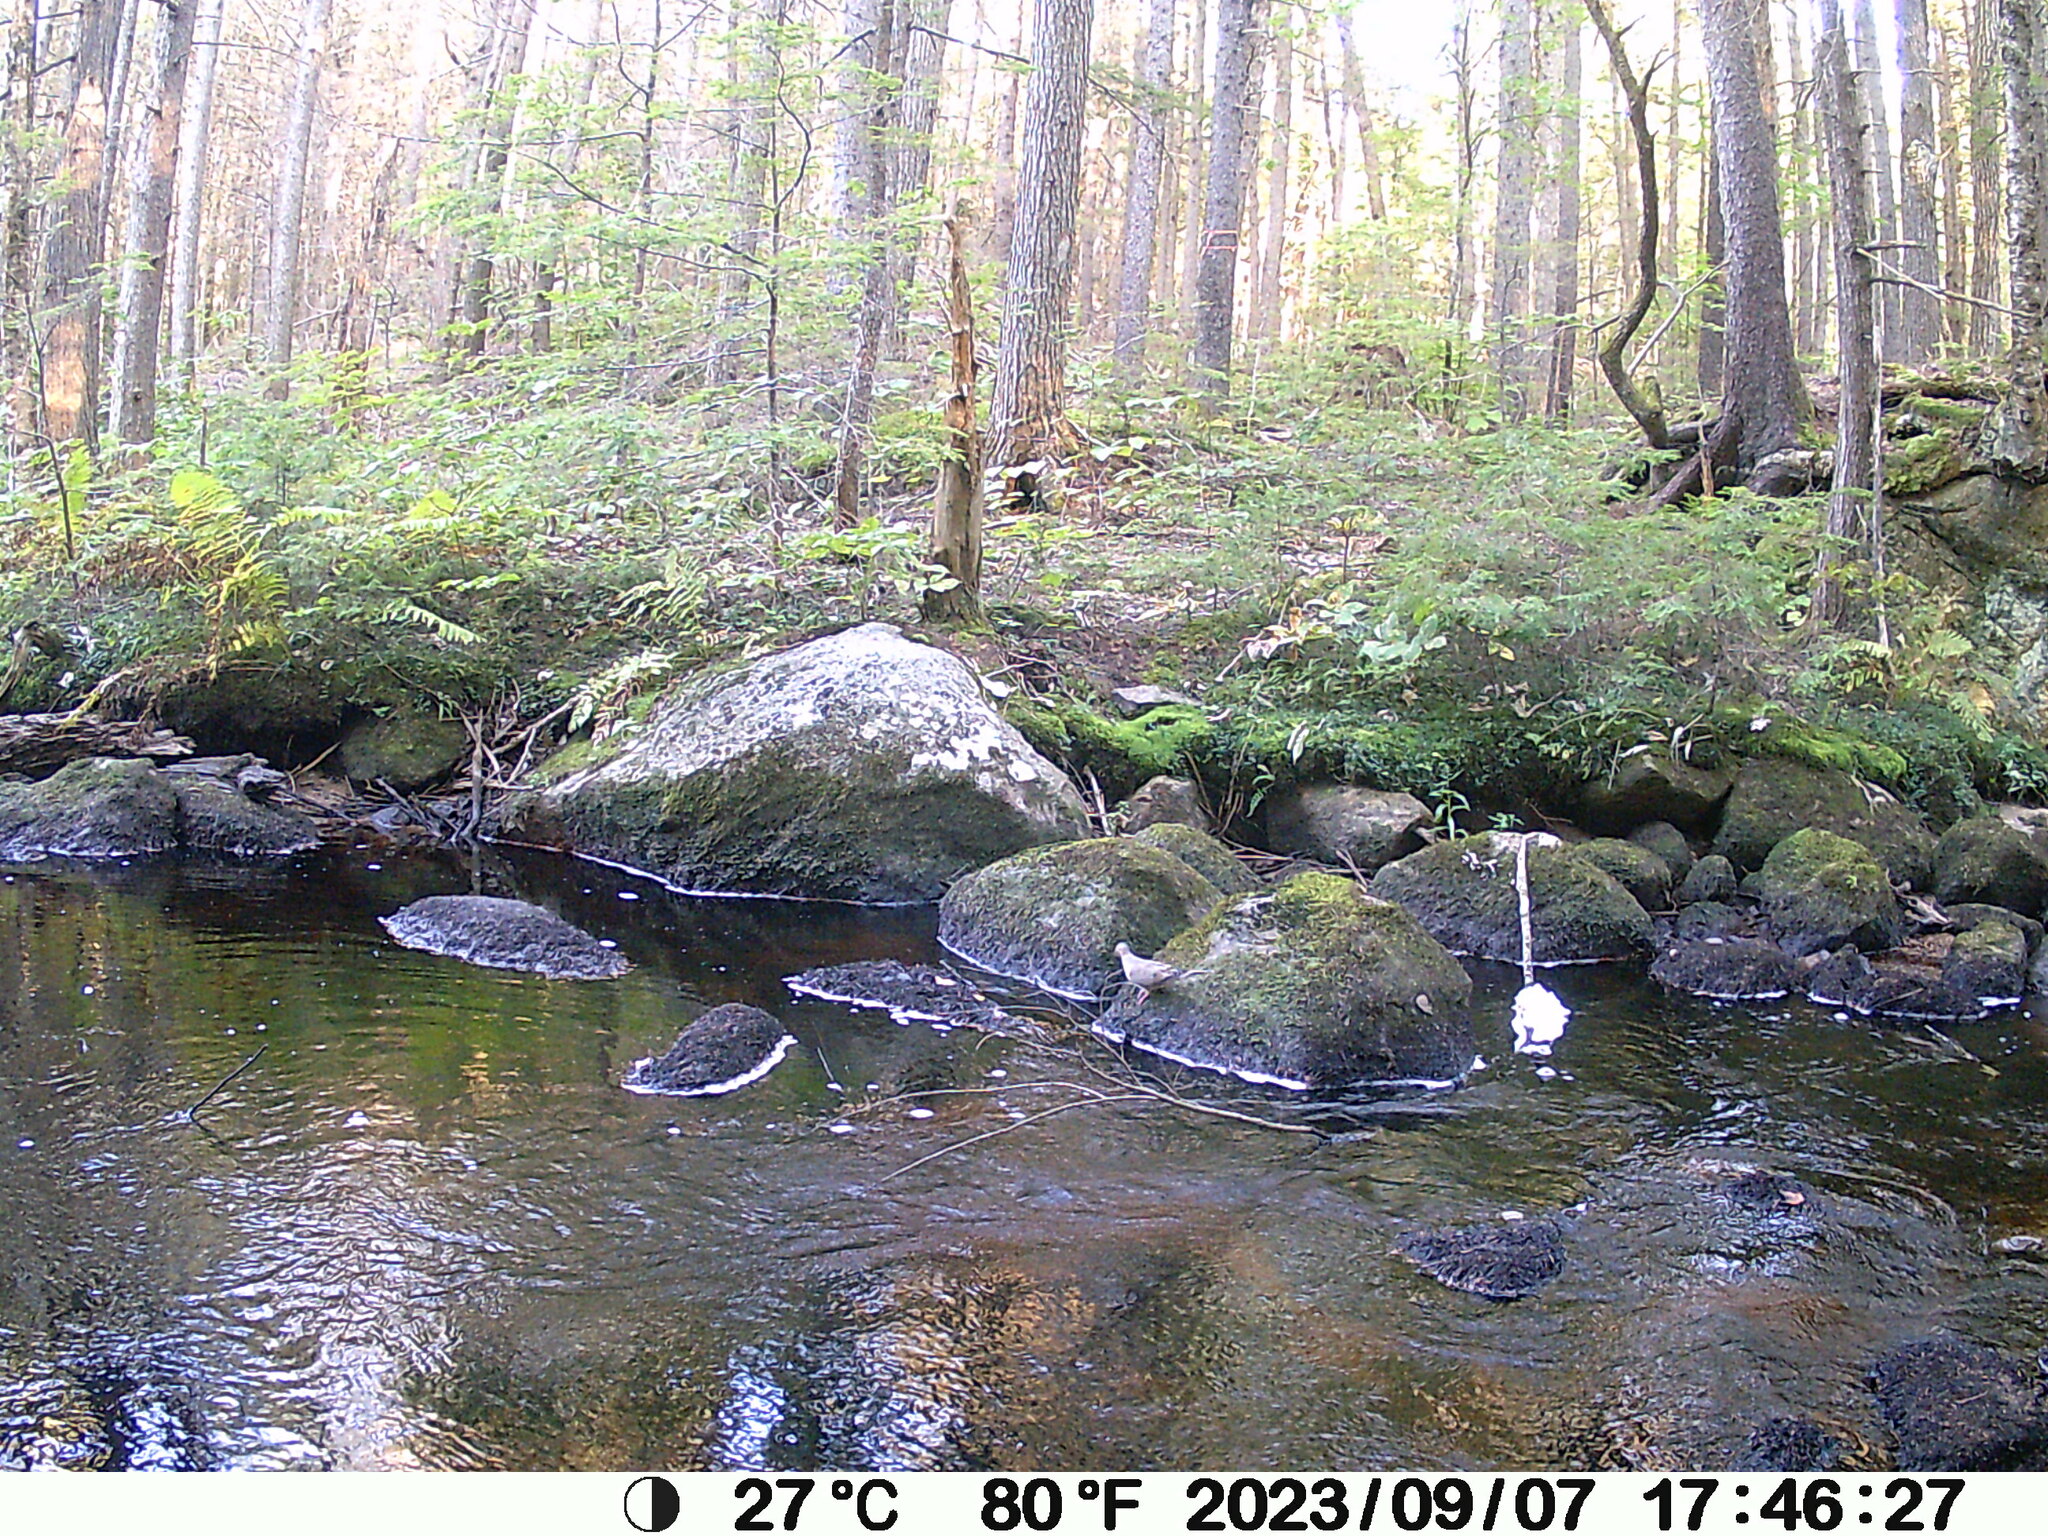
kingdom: Animalia
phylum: Chordata
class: Aves
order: Columbiformes
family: Columbidae
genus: Zenaida
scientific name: Zenaida macroura
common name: Mourning dove
